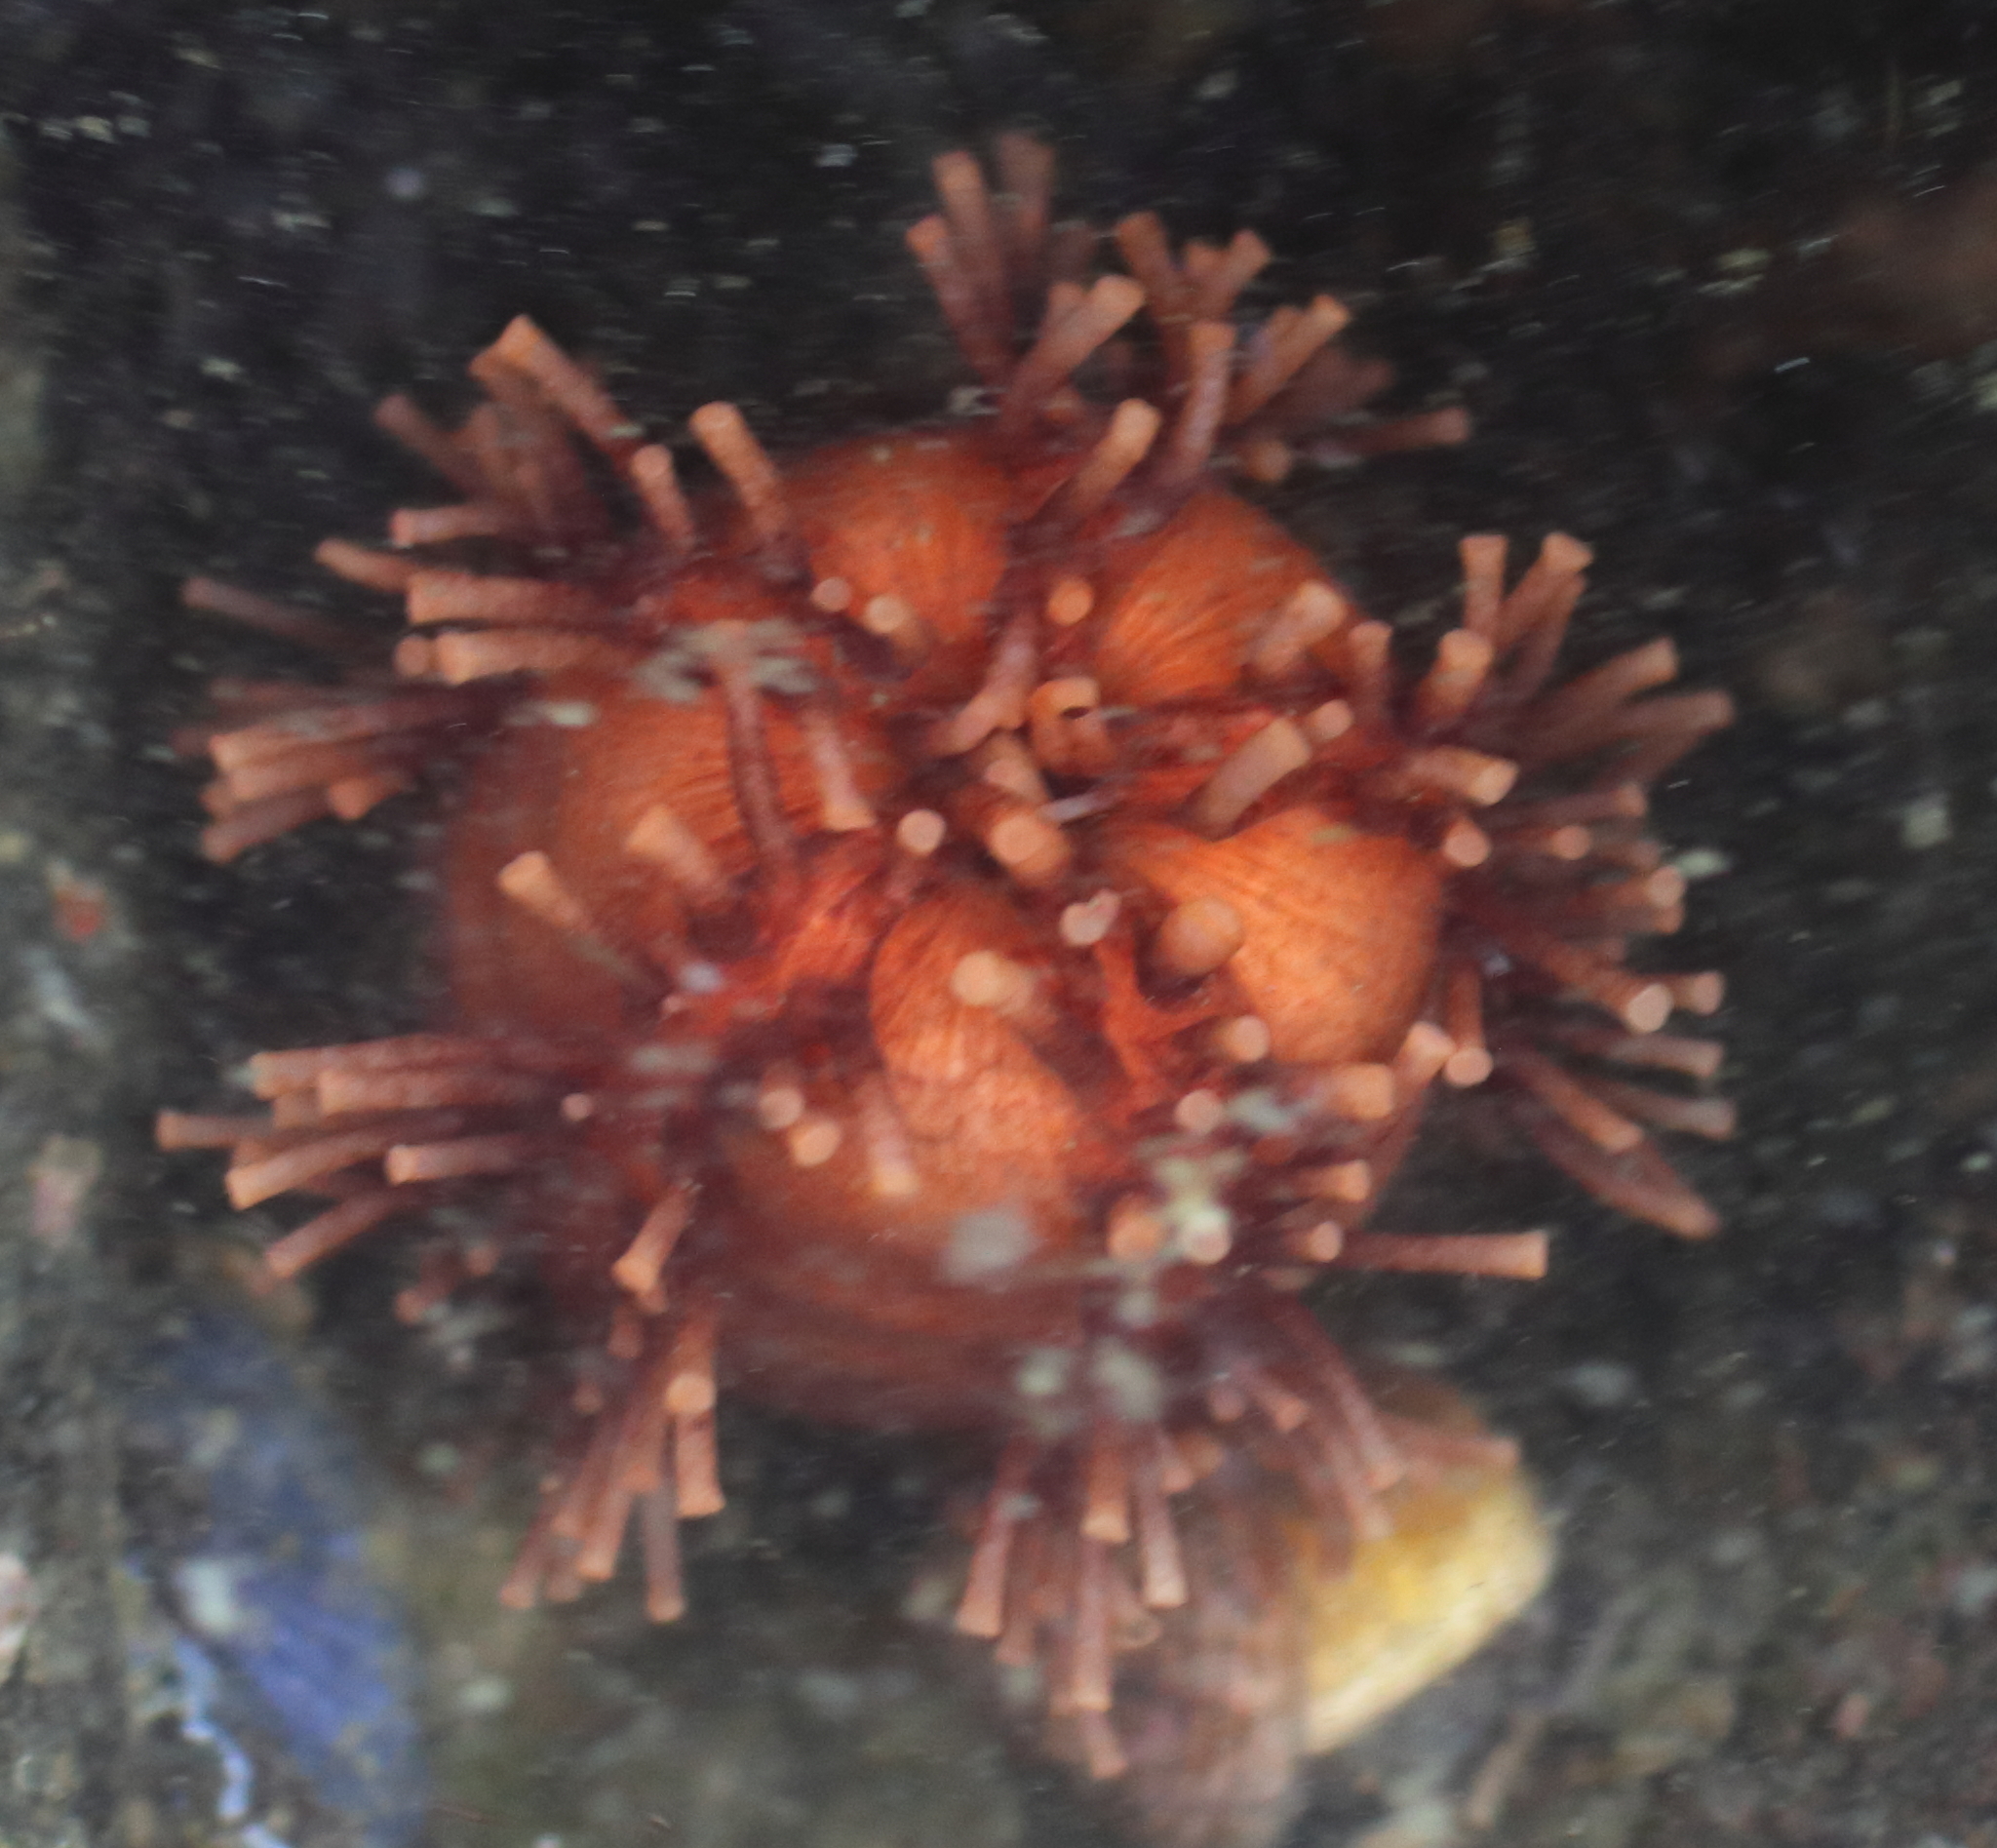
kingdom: Animalia
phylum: Echinodermata
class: Holothuroidea
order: Dendrochirotida
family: Cucumariidae
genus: Cucumaria
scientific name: Cucumaria miniata
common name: Orange sea cucumber
